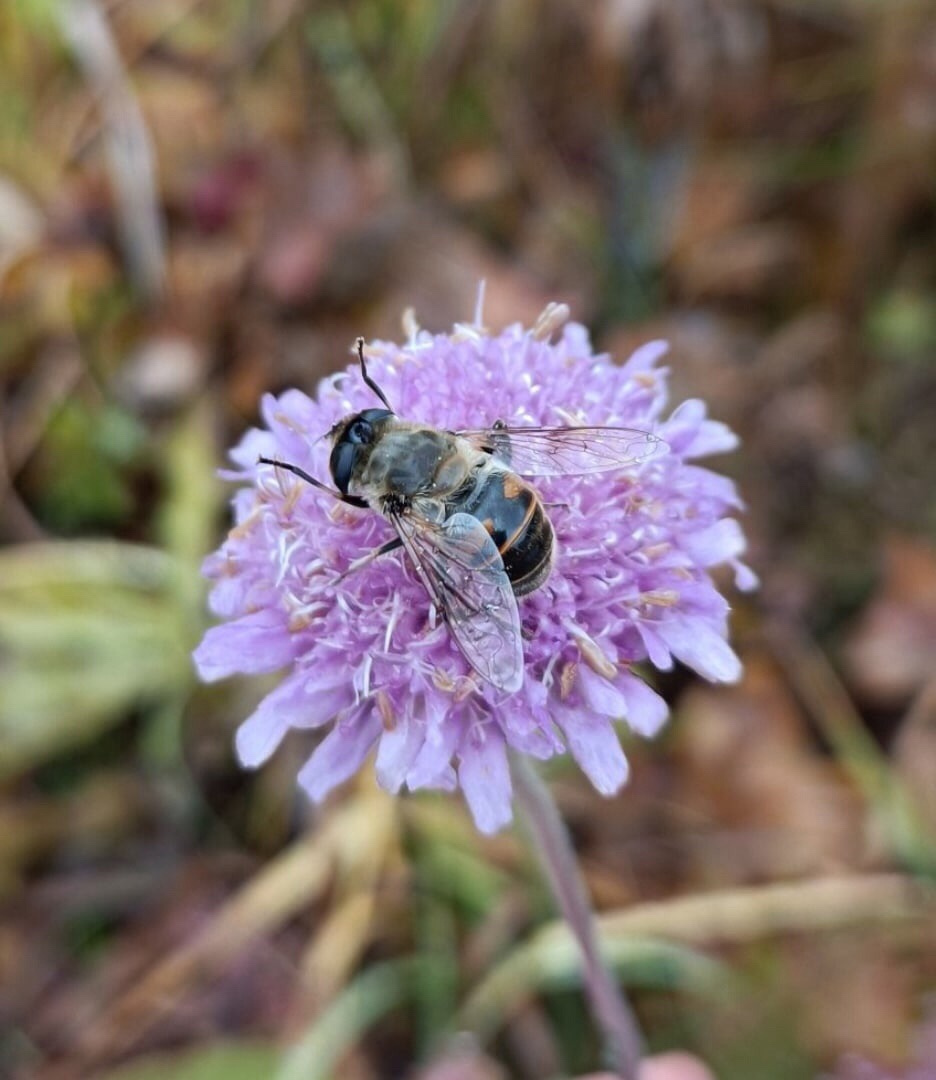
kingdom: Animalia
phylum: Arthropoda
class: Insecta
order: Diptera
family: Syrphidae
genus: Eristalis
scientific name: Eristalis tenax
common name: Drone fly
